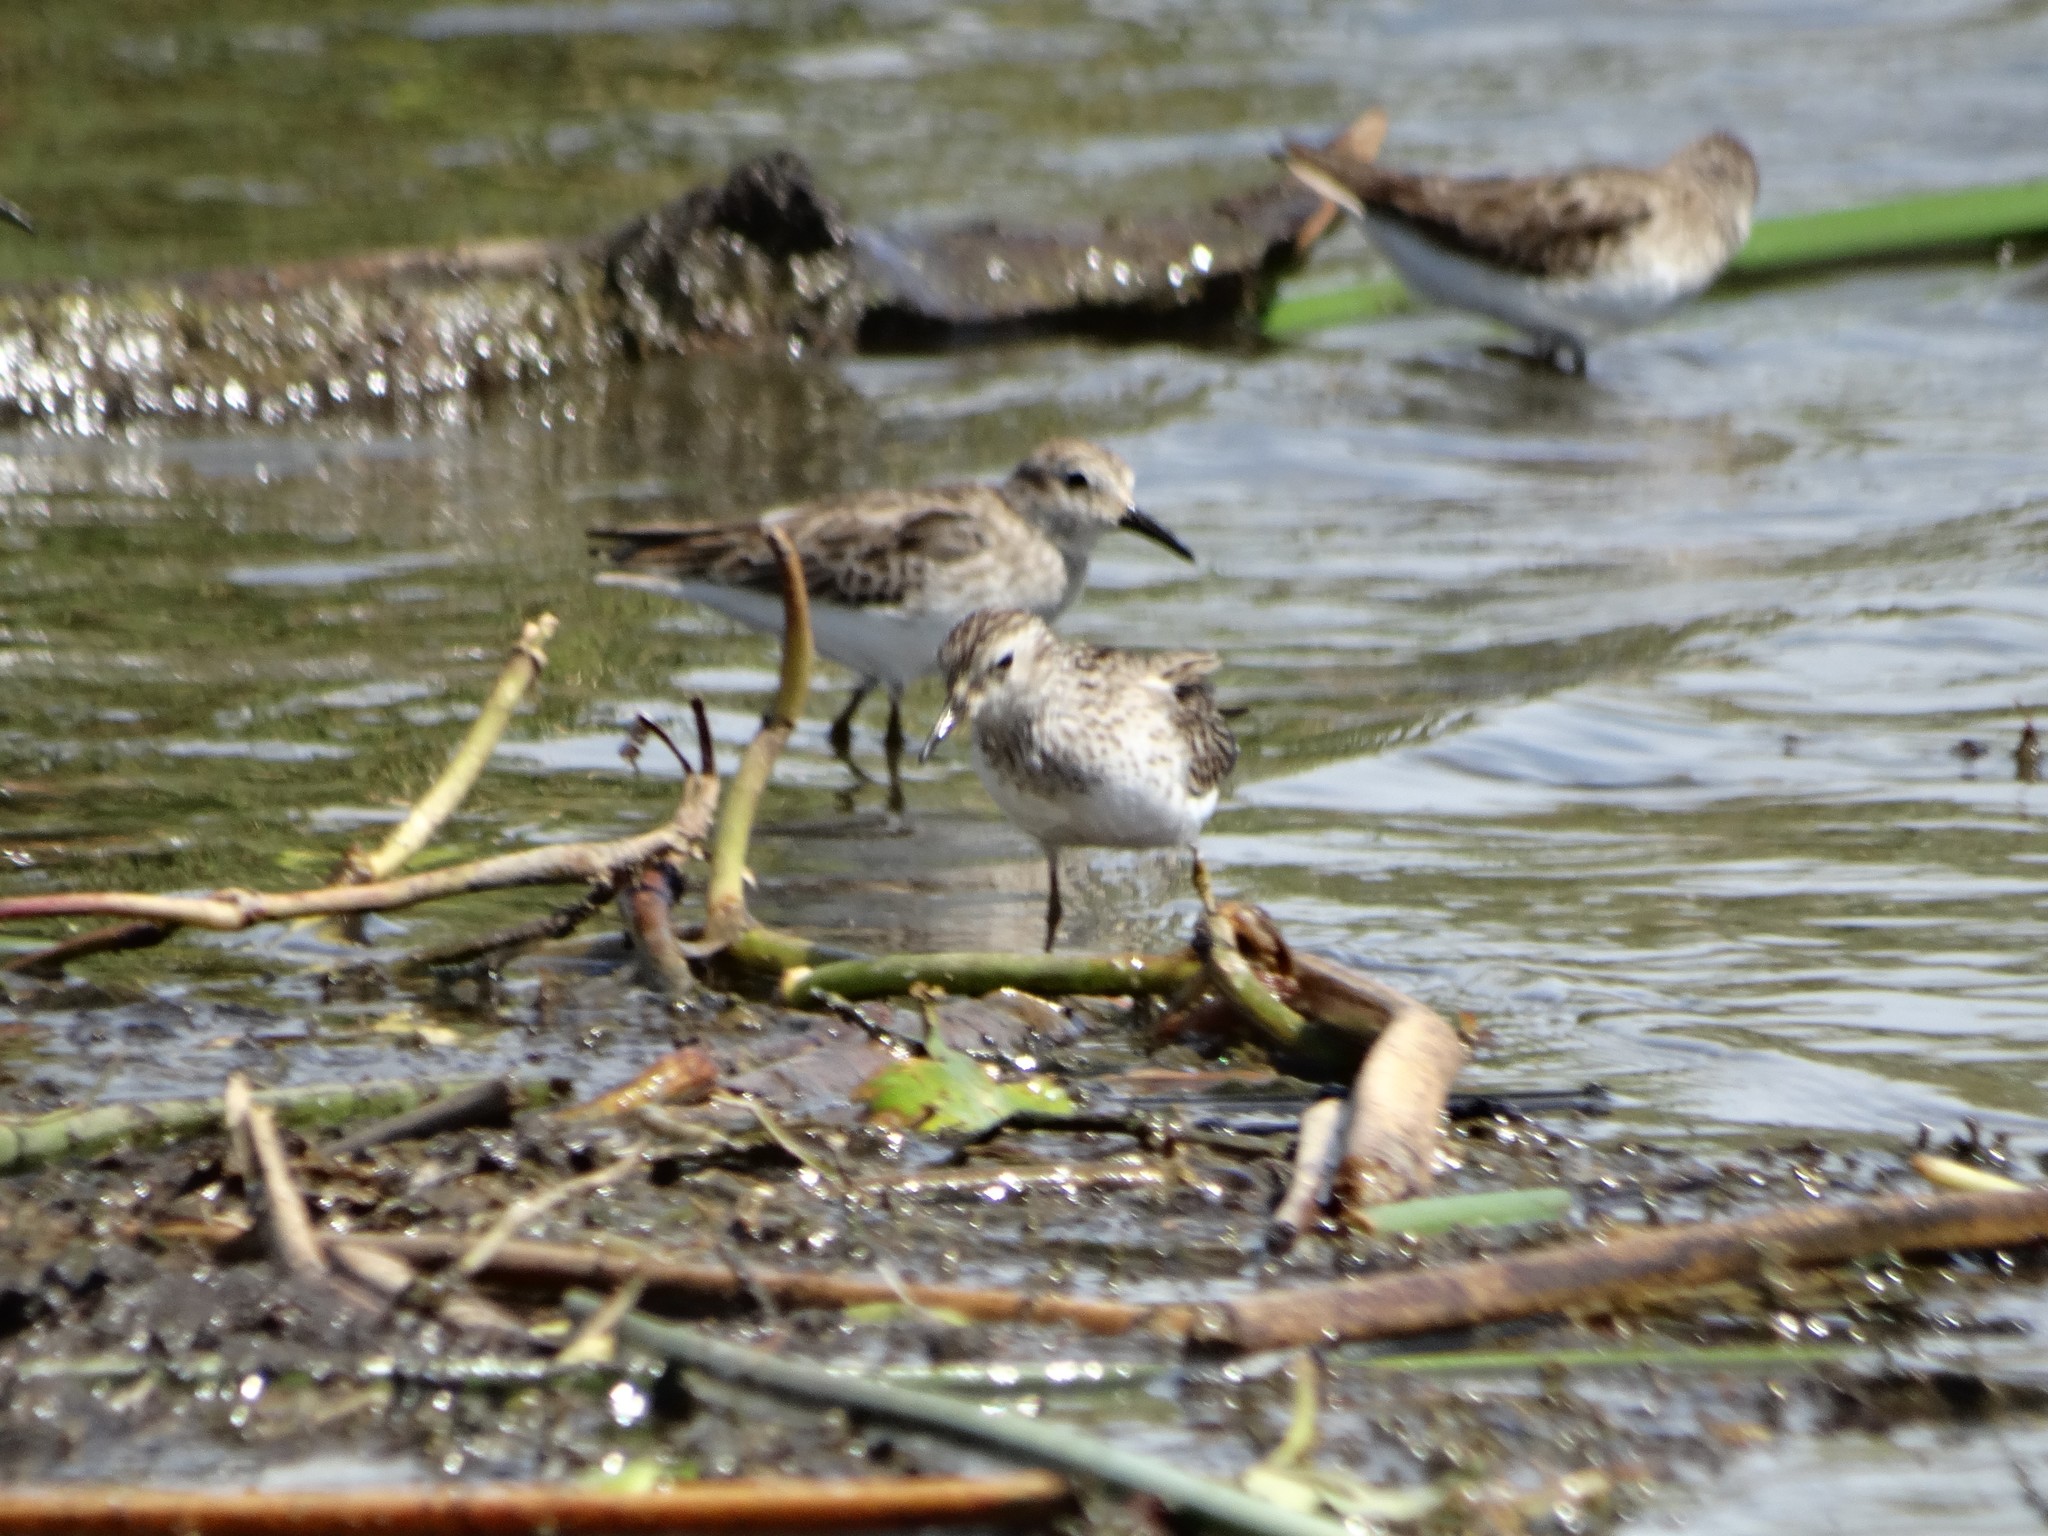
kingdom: Animalia
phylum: Chordata
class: Aves
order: Charadriiformes
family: Scolopacidae
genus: Calidris
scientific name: Calidris minutilla
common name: Least sandpiper
